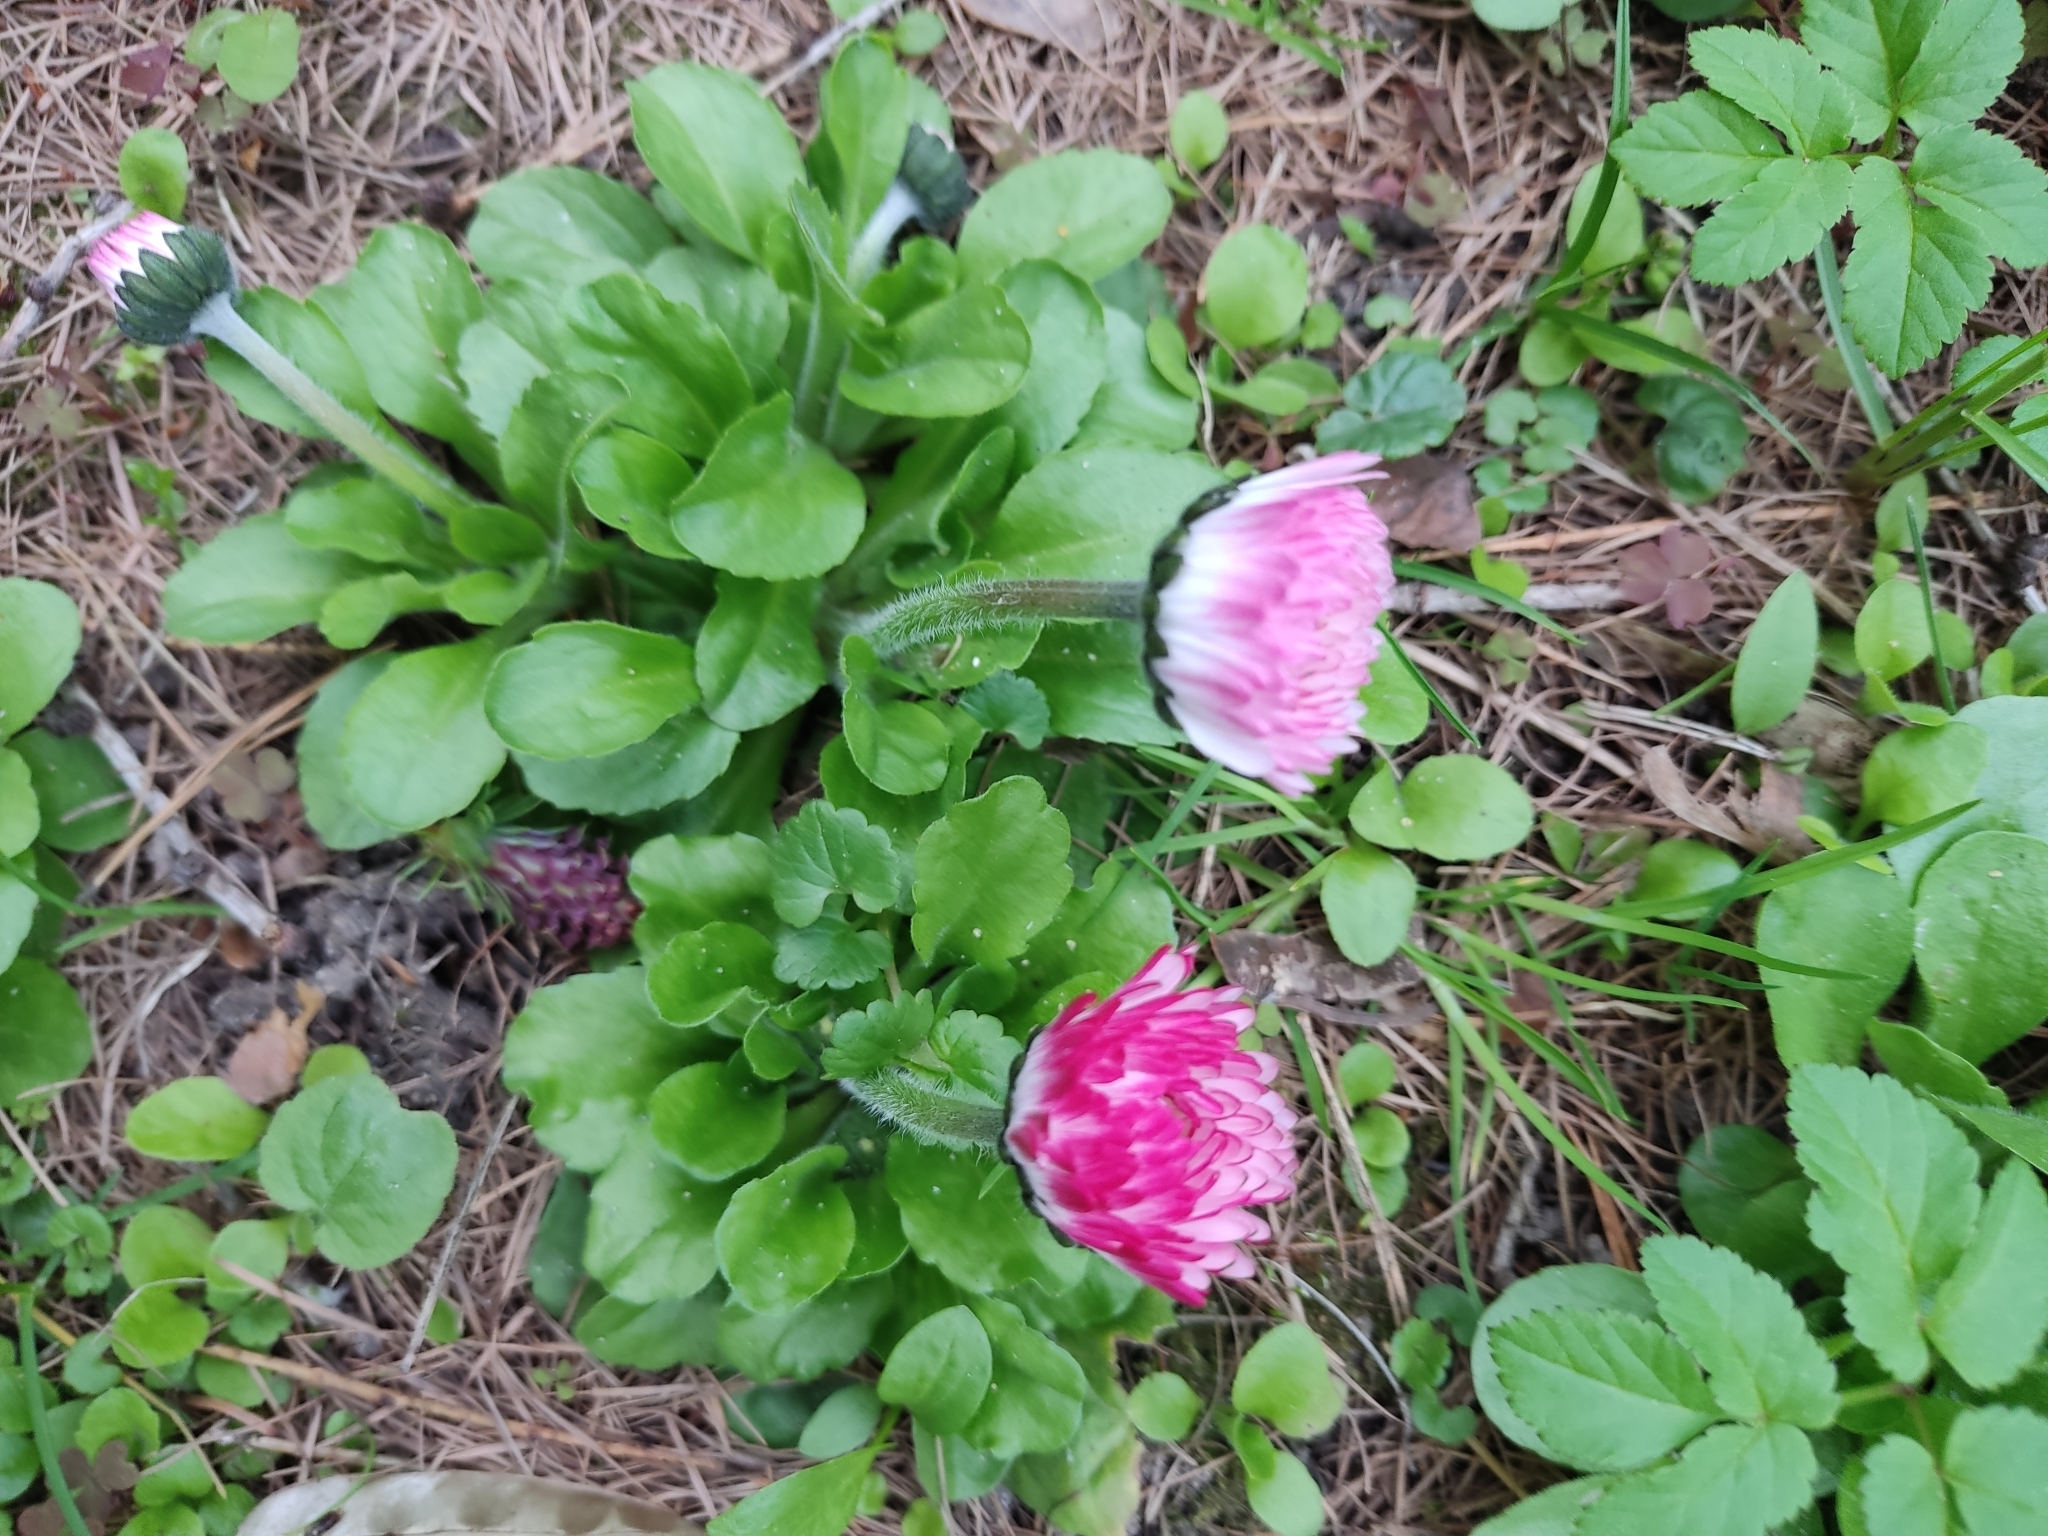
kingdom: Plantae
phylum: Tracheophyta
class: Magnoliopsida
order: Asterales
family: Asteraceae
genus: Bellis
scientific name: Bellis perennis
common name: Lawndaisy
